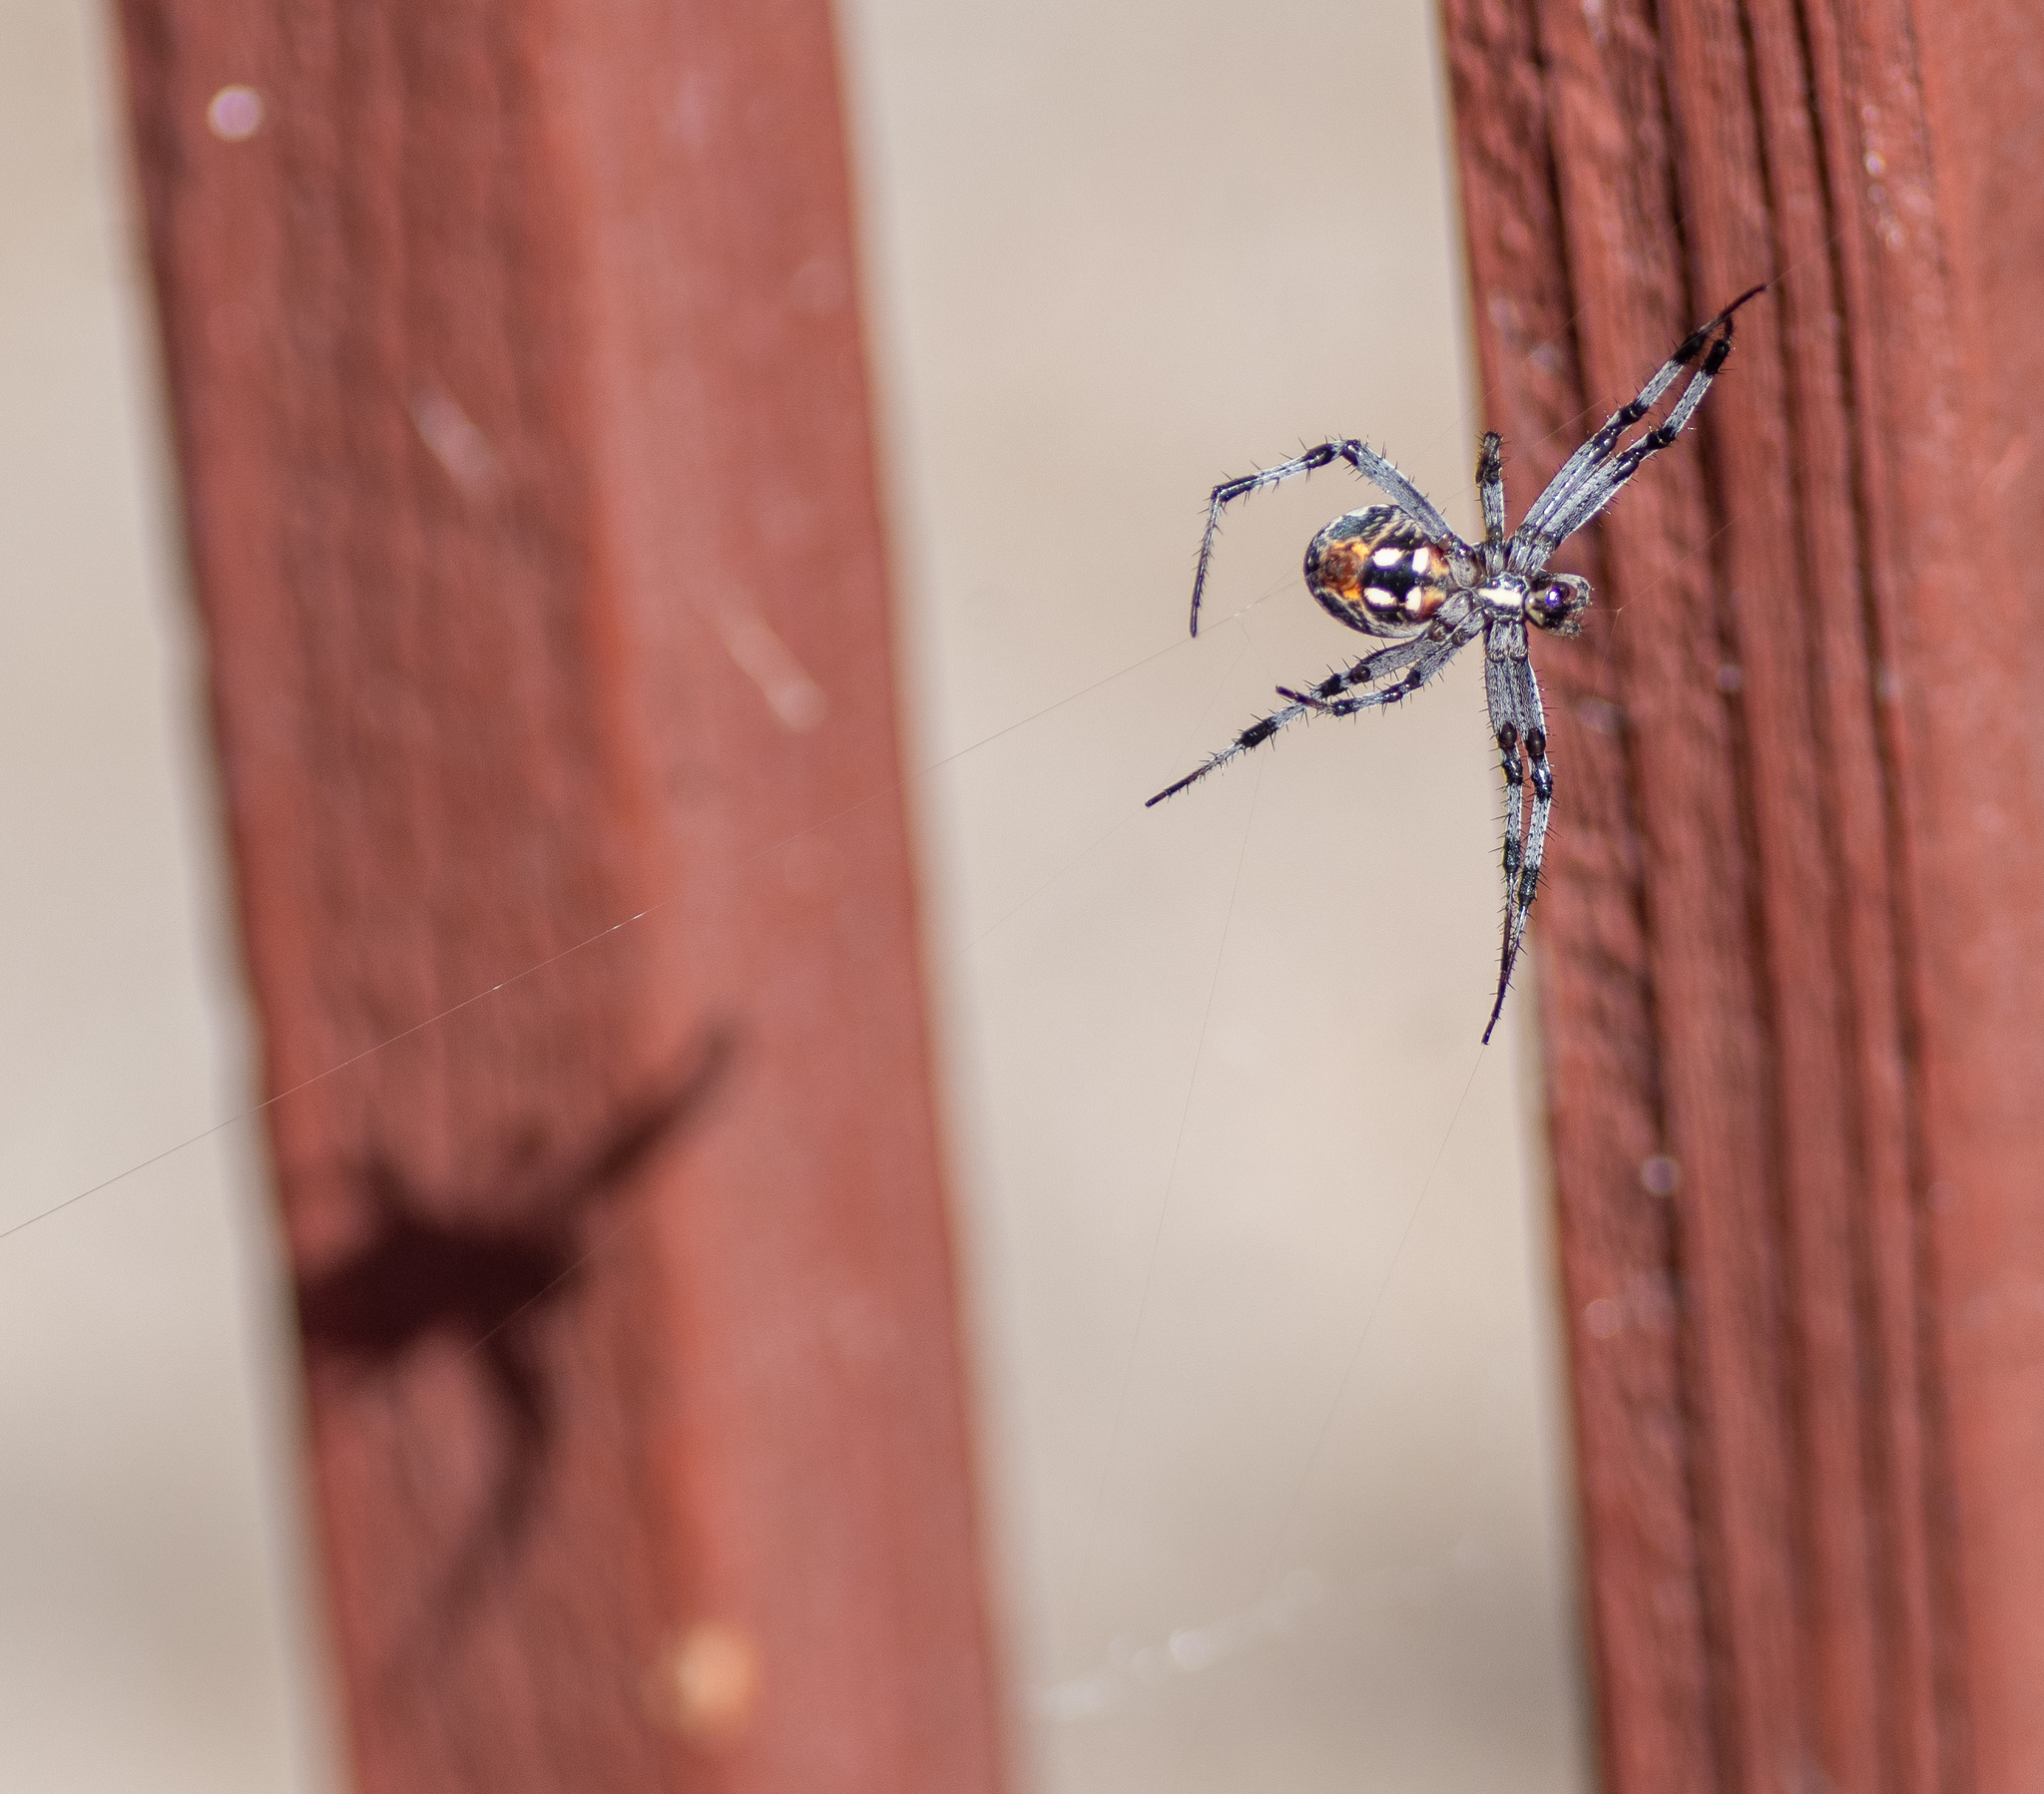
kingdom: Animalia
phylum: Arthropoda
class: Arachnida
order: Araneae
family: Araneidae
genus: Neoscona
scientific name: Neoscona oaxacensis
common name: Orb weavers
